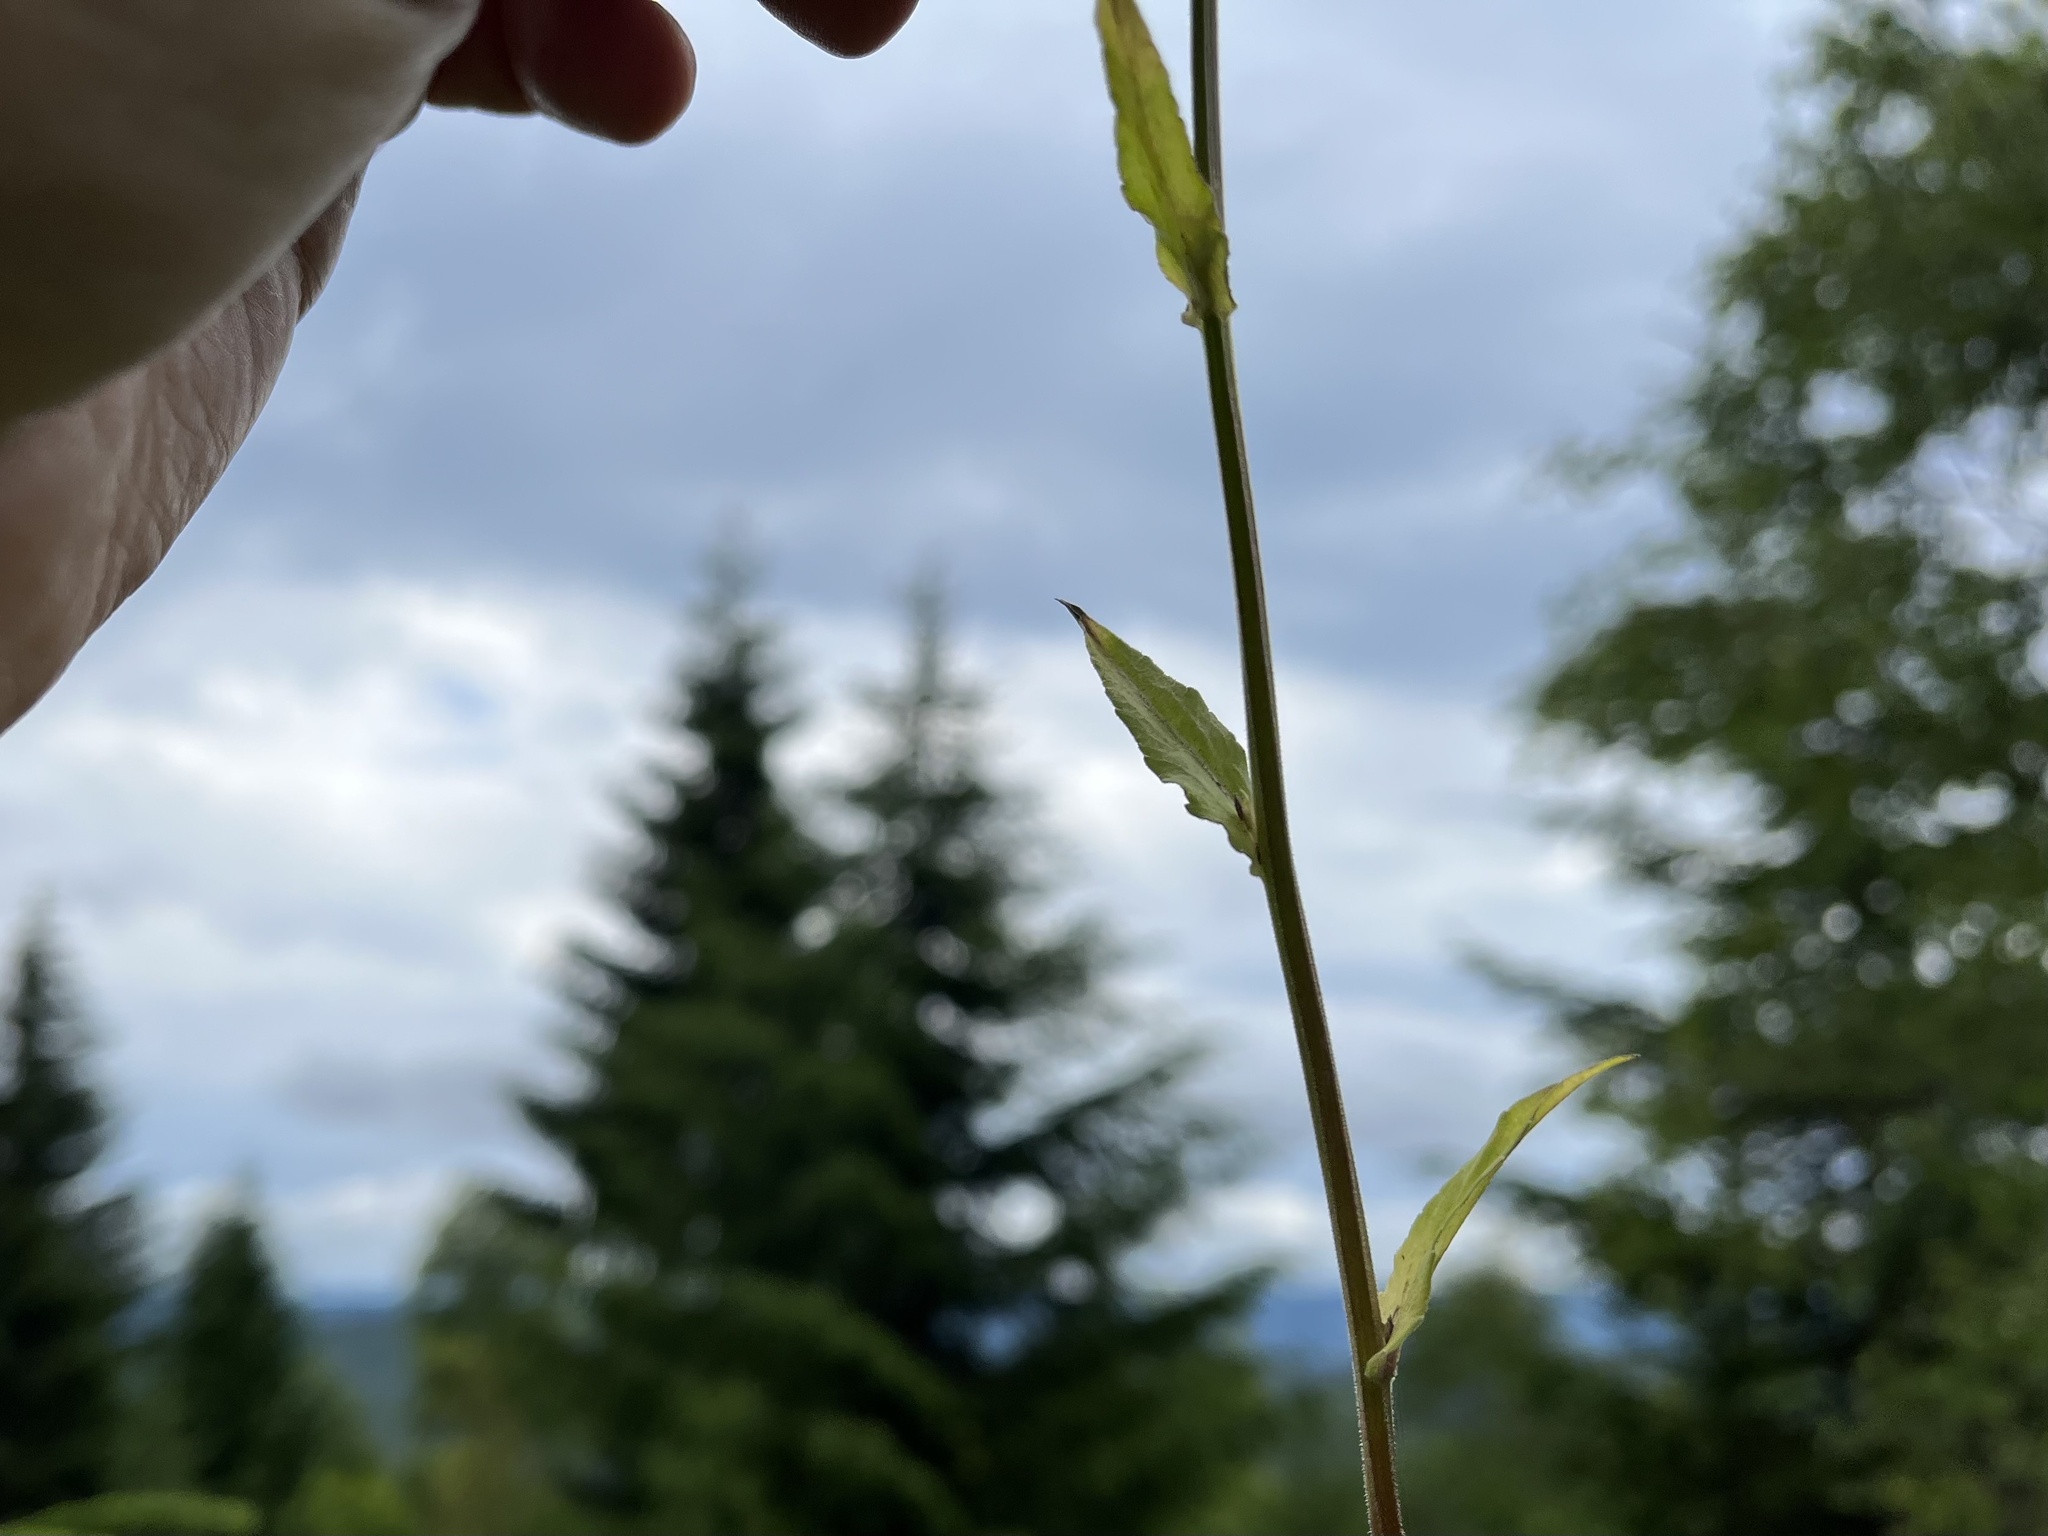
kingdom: Plantae
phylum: Tracheophyta
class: Magnoliopsida
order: Asterales
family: Campanulaceae
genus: Campanula
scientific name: Campanula patula
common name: Spreading bellflower
